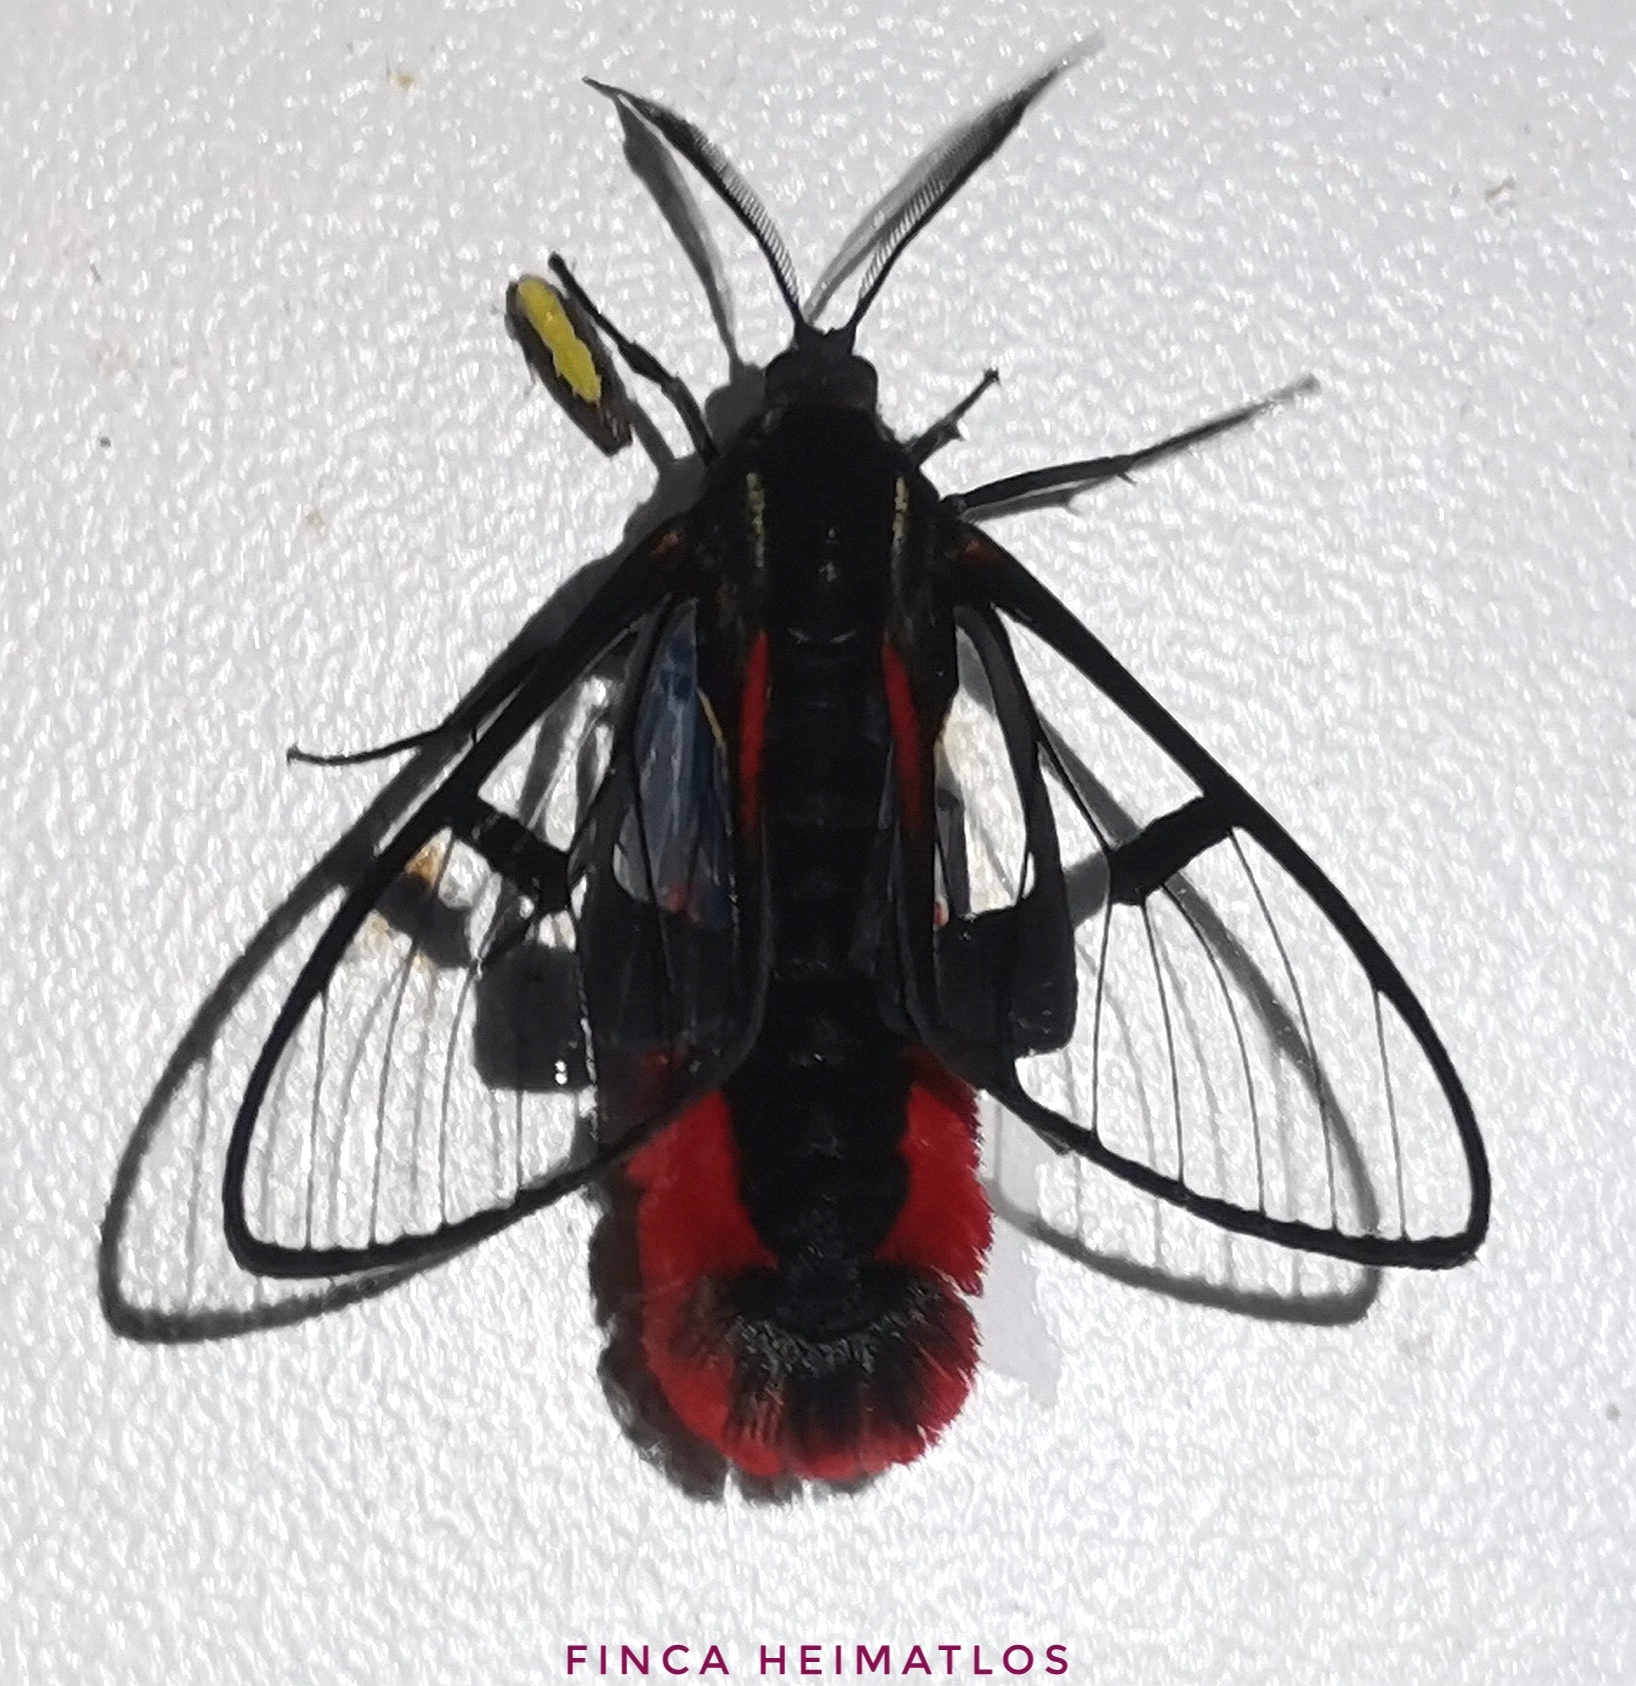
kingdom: Animalia
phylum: Arthropoda
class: Insecta
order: Lepidoptera
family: Erebidae
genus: Dinia
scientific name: Dinia eagrus
